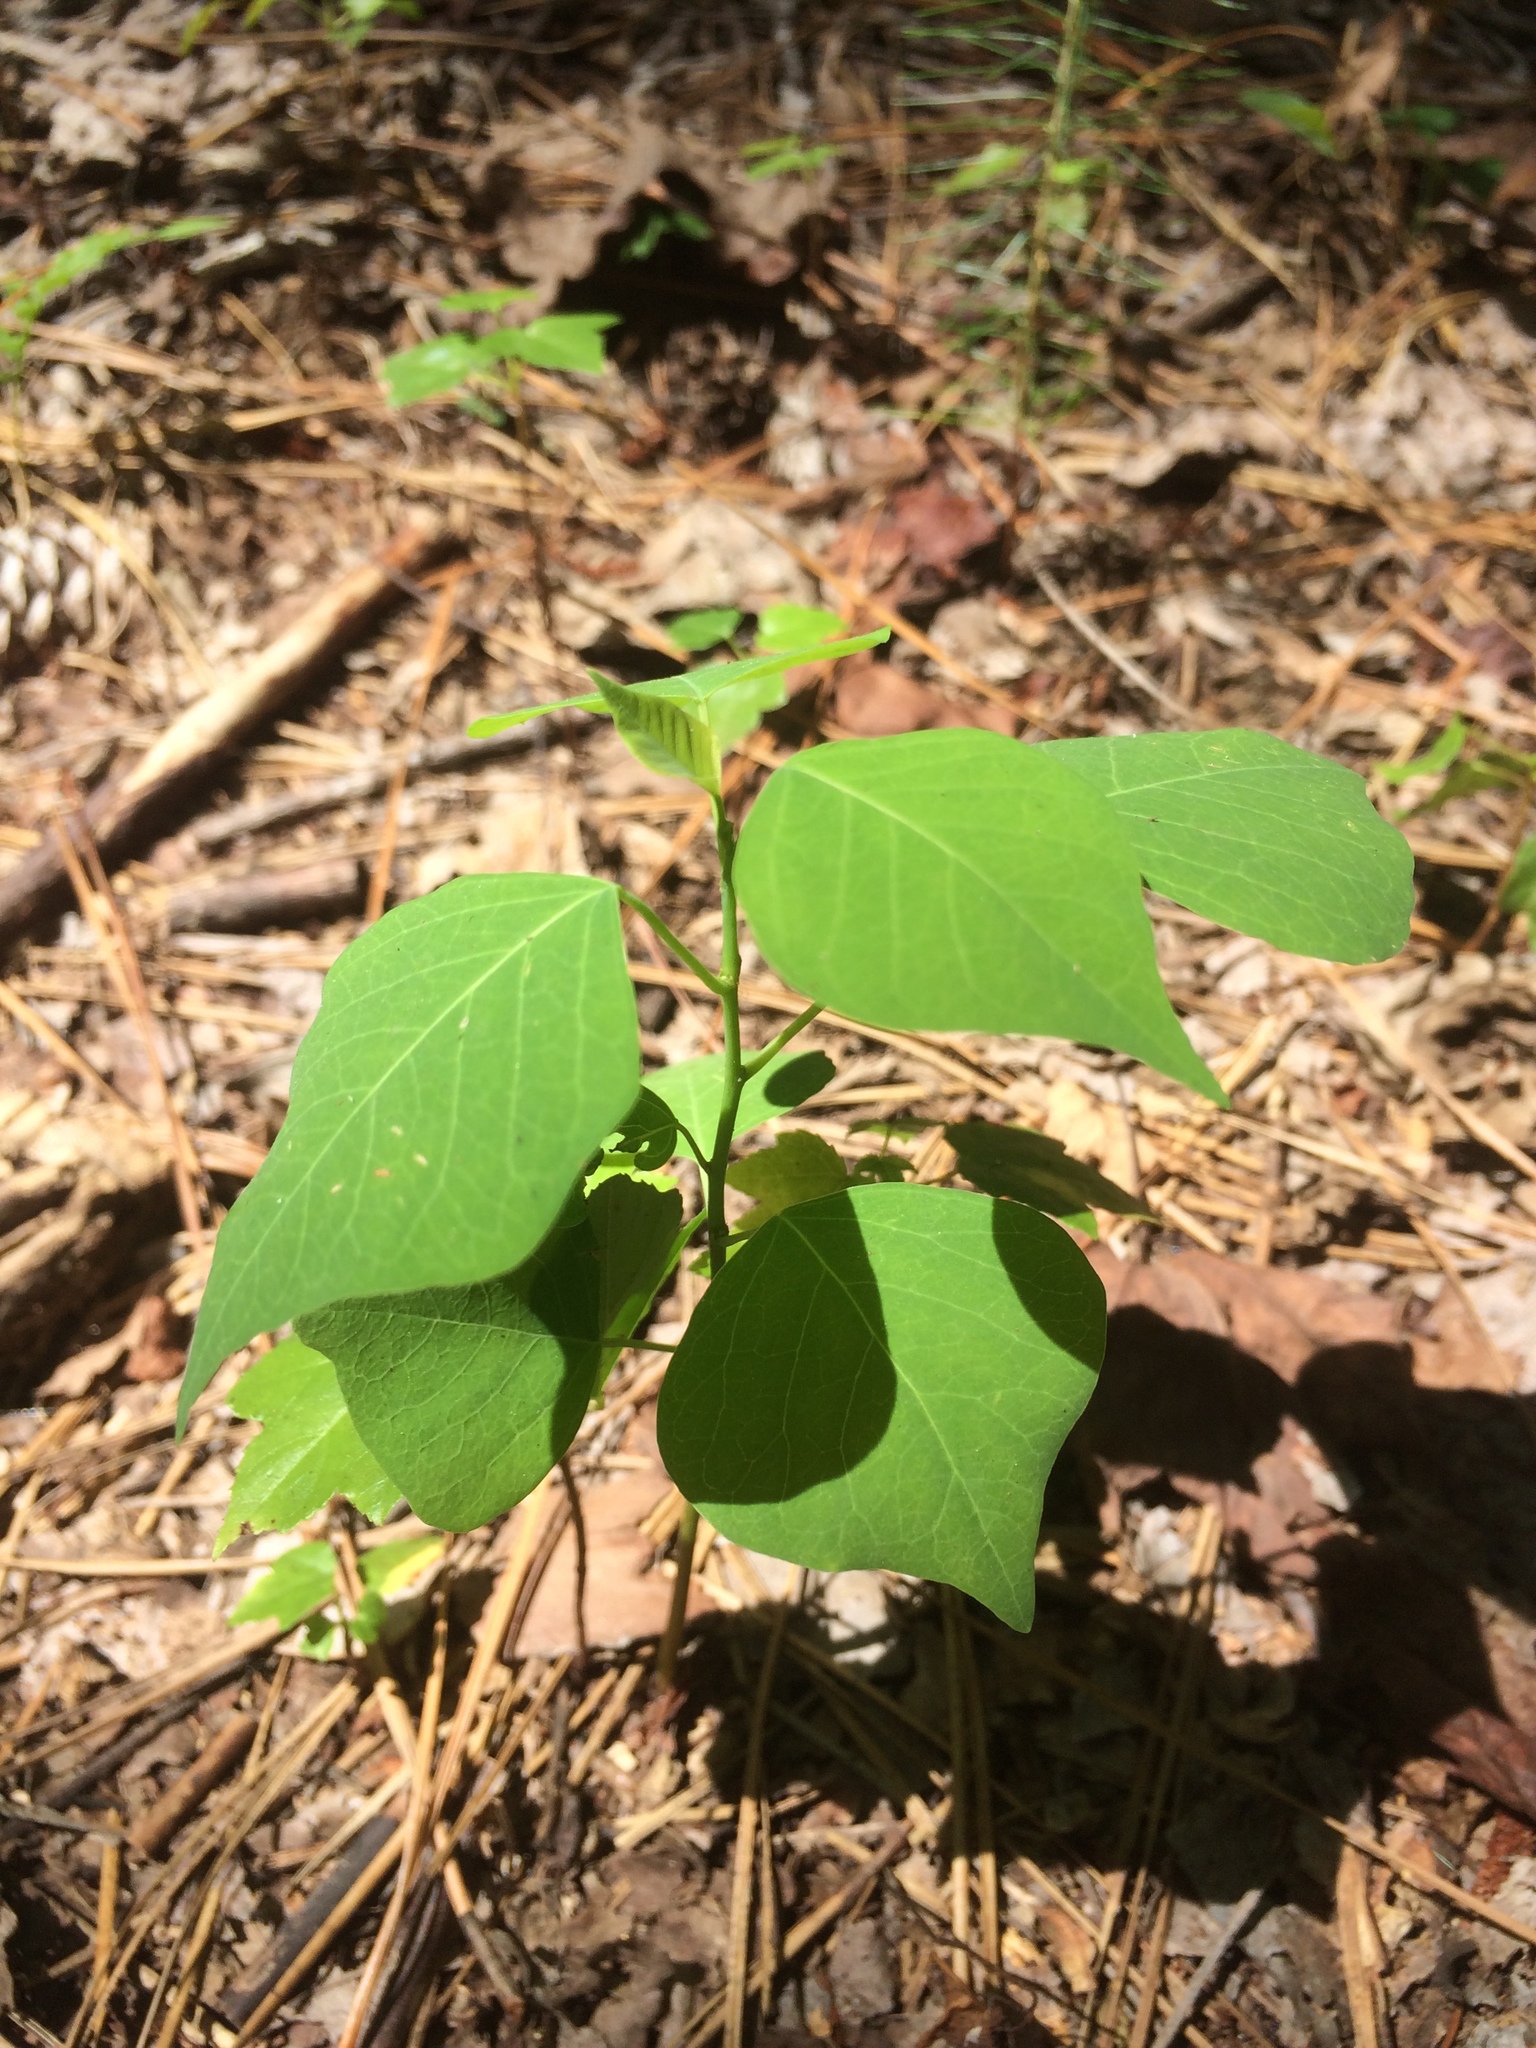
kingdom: Plantae
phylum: Tracheophyta
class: Magnoliopsida
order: Malpighiales
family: Euphorbiaceae
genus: Triadica
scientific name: Triadica sebifera
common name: Chinese tallow
